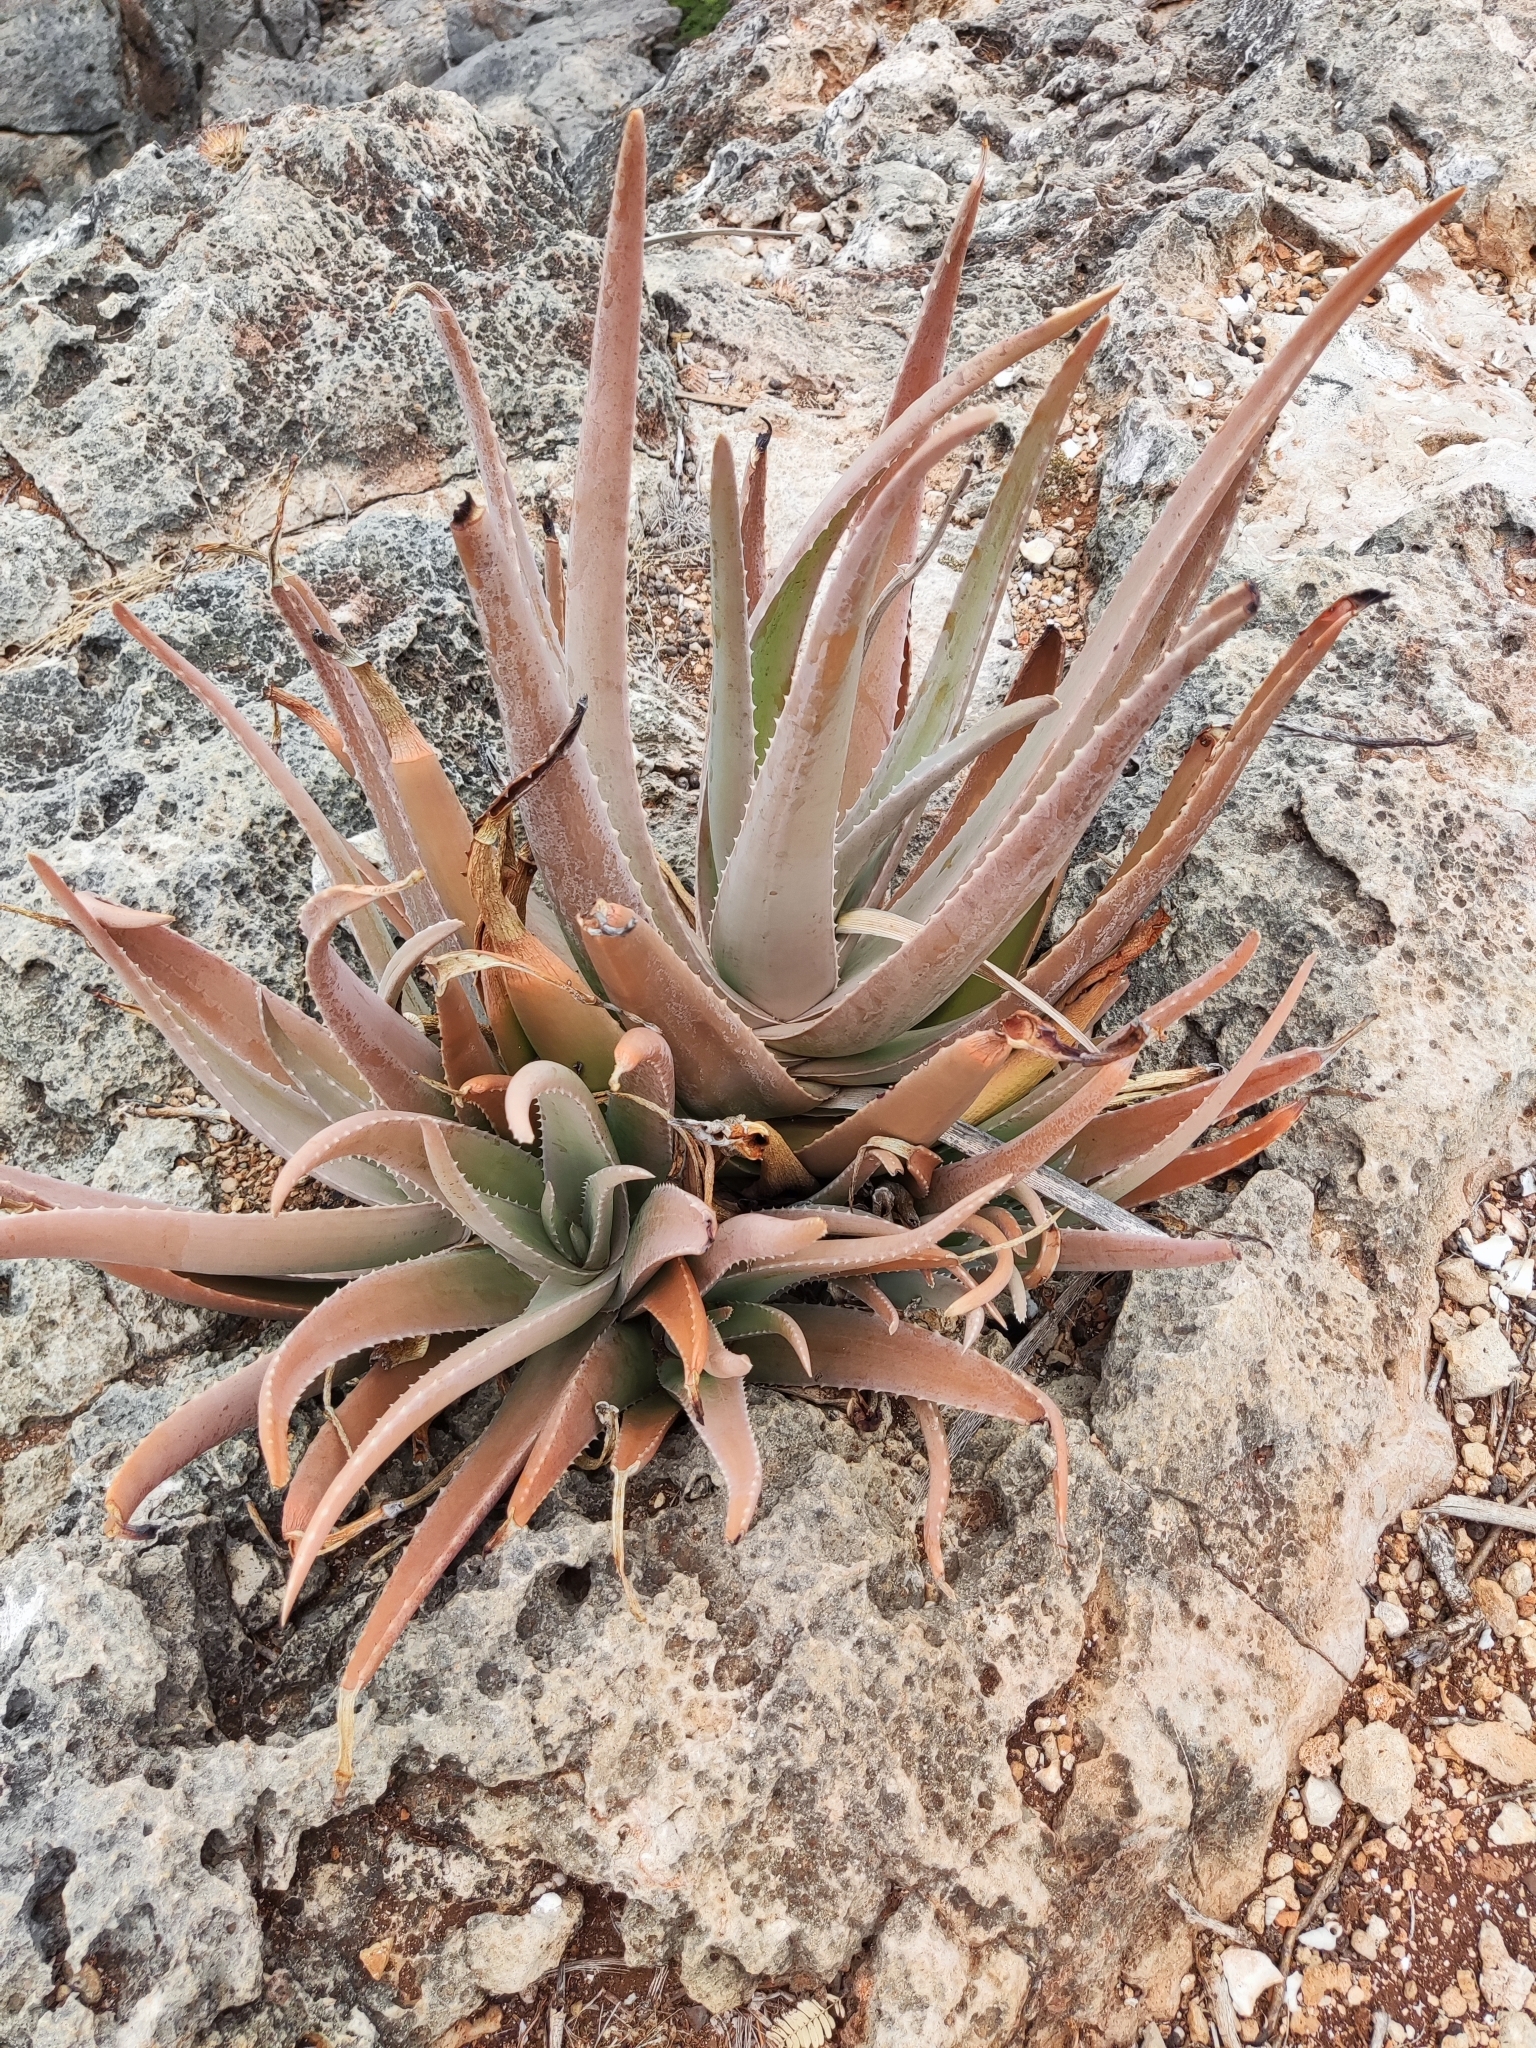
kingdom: Plantae
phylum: Tracheophyta
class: Liliopsida
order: Asparagales
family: Asphodelaceae
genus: Aloe
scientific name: Aloe vera
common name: Barbados aloe
